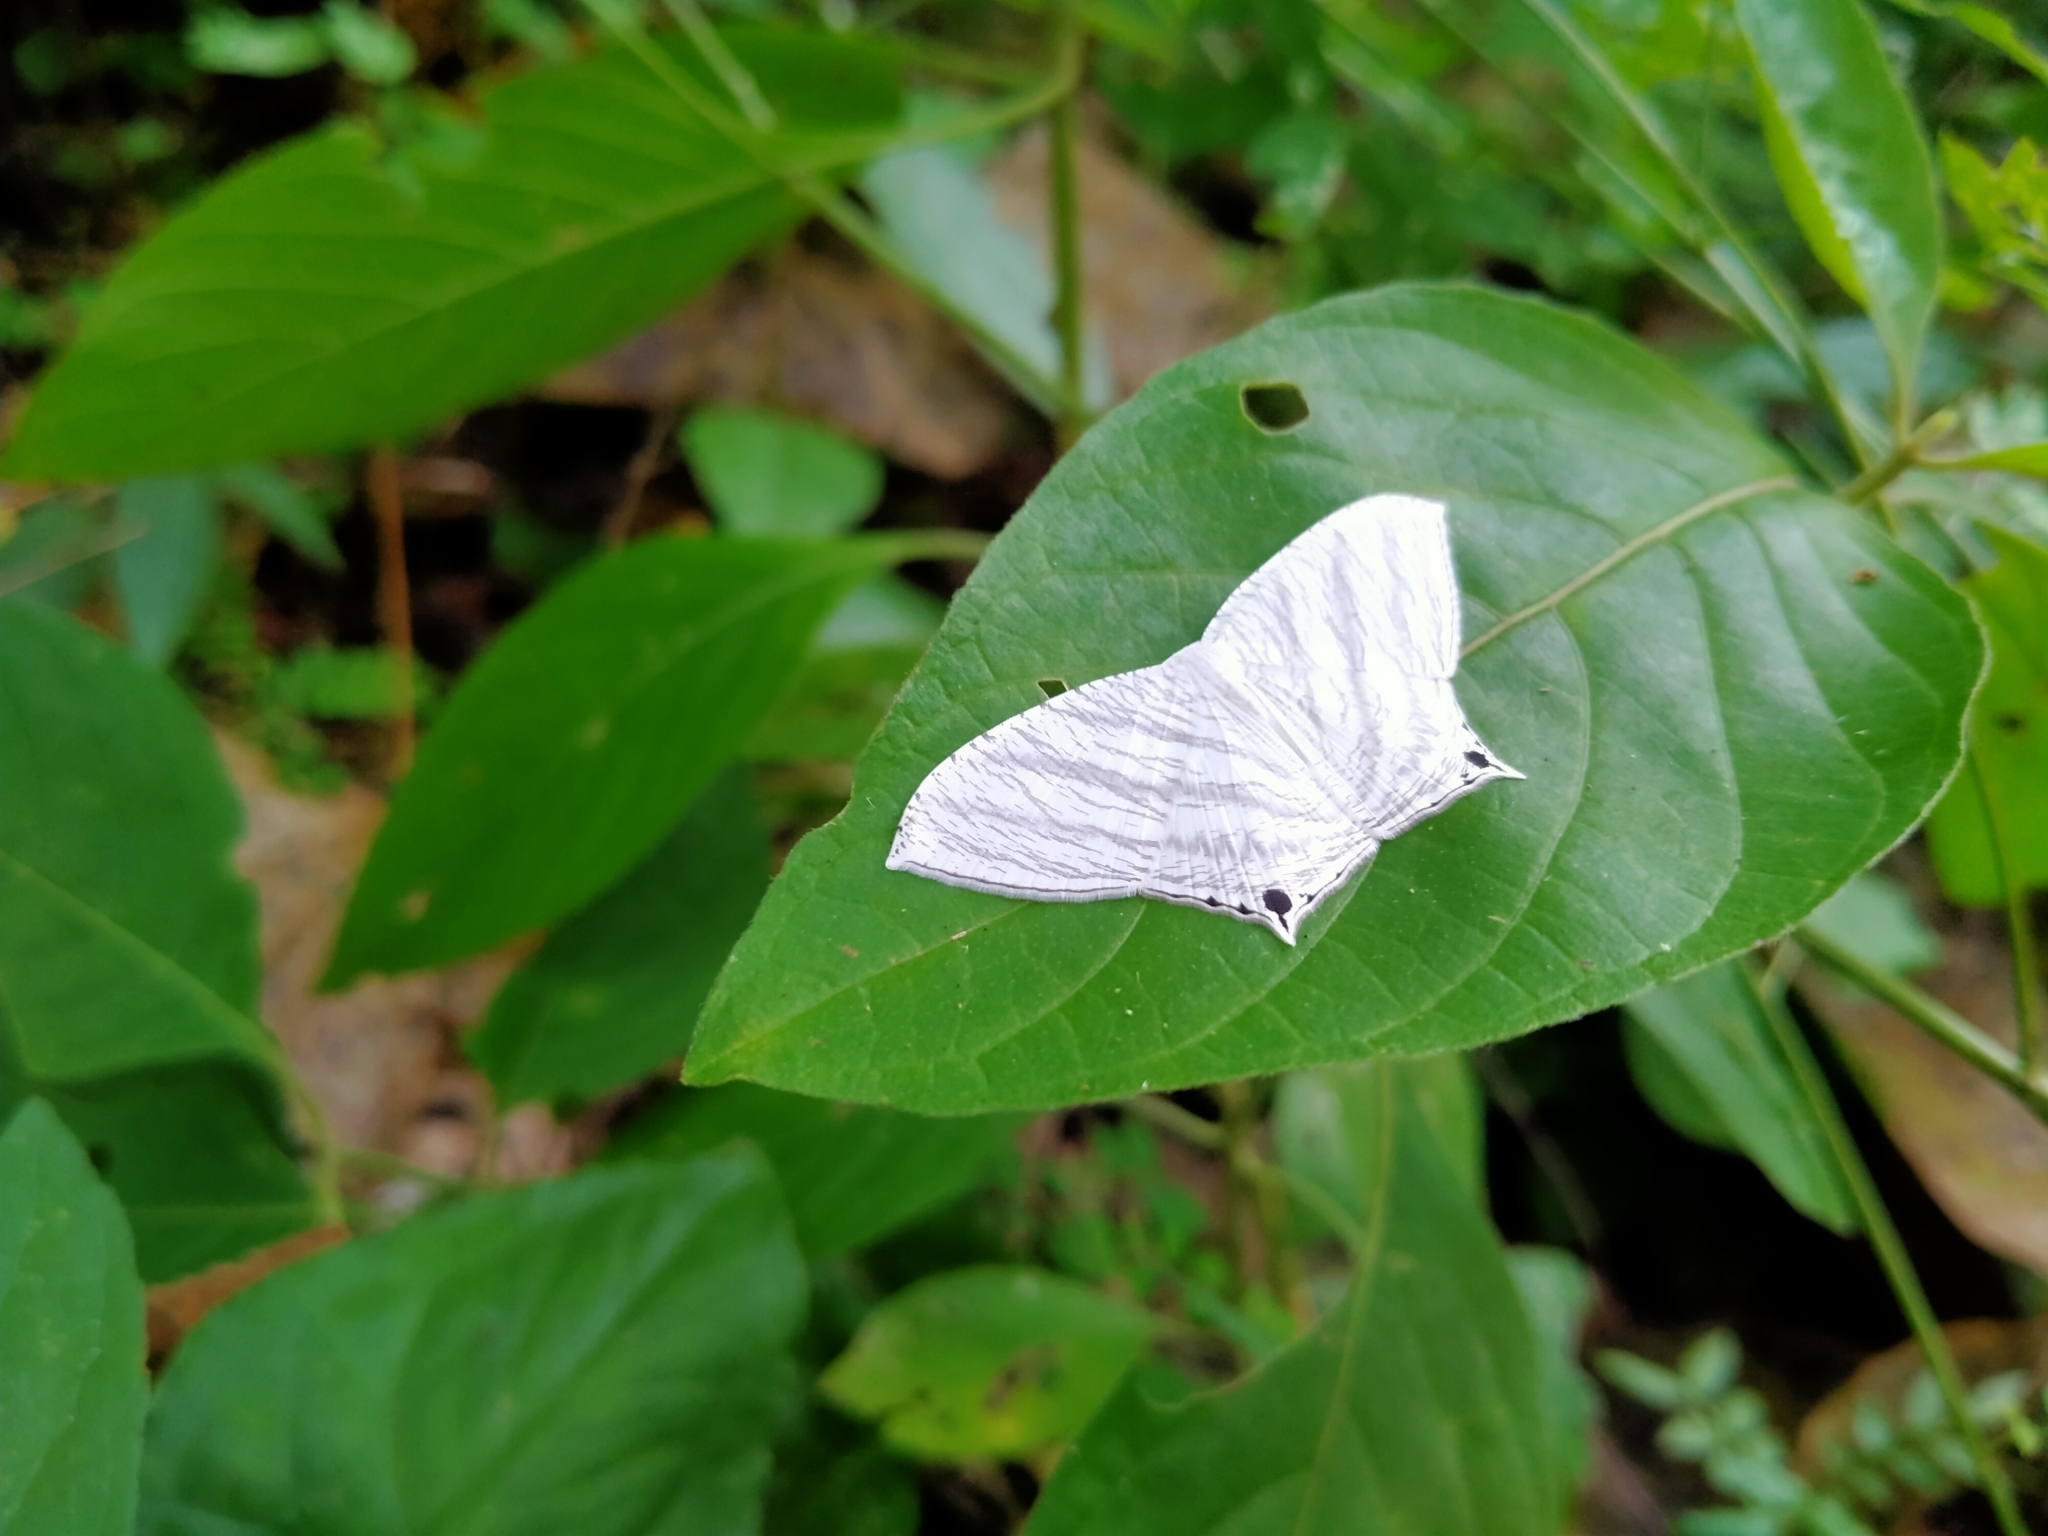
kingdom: Animalia
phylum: Arthropoda
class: Insecta
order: Lepidoptera
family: Uraniidae
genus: Micronia
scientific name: Micronia aculeata
